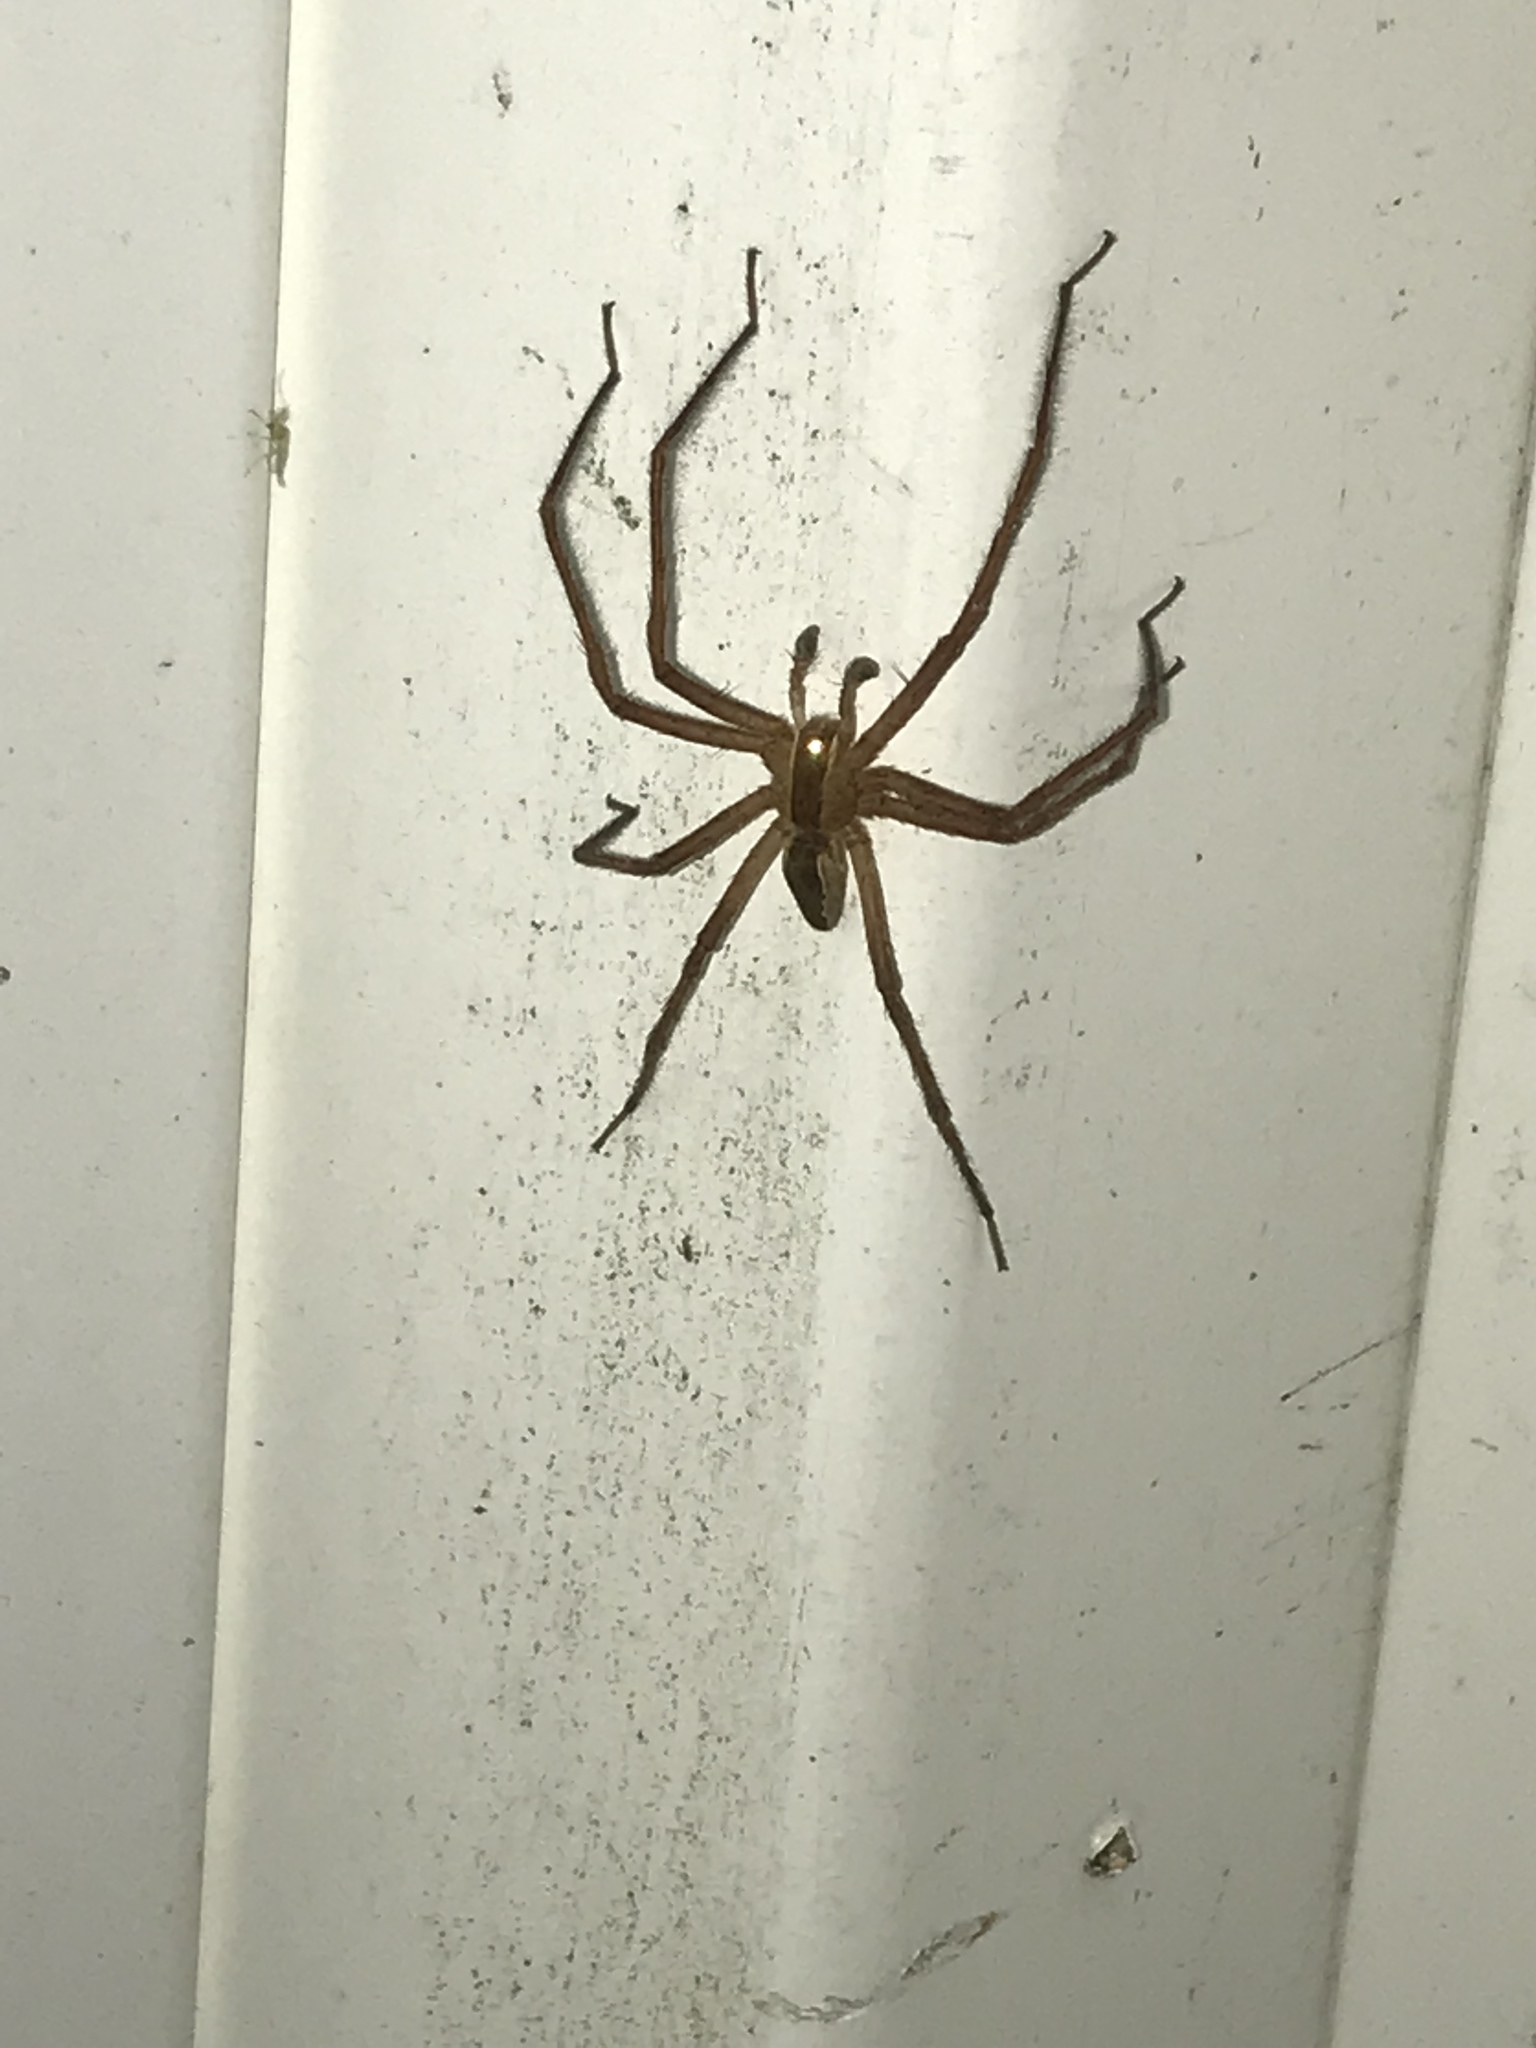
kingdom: Animalia
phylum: Arthropoda
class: Arachnida
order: Araneae
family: Pisauridae
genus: Pisaurina
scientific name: Pisaurina mira
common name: American nursery web spider
